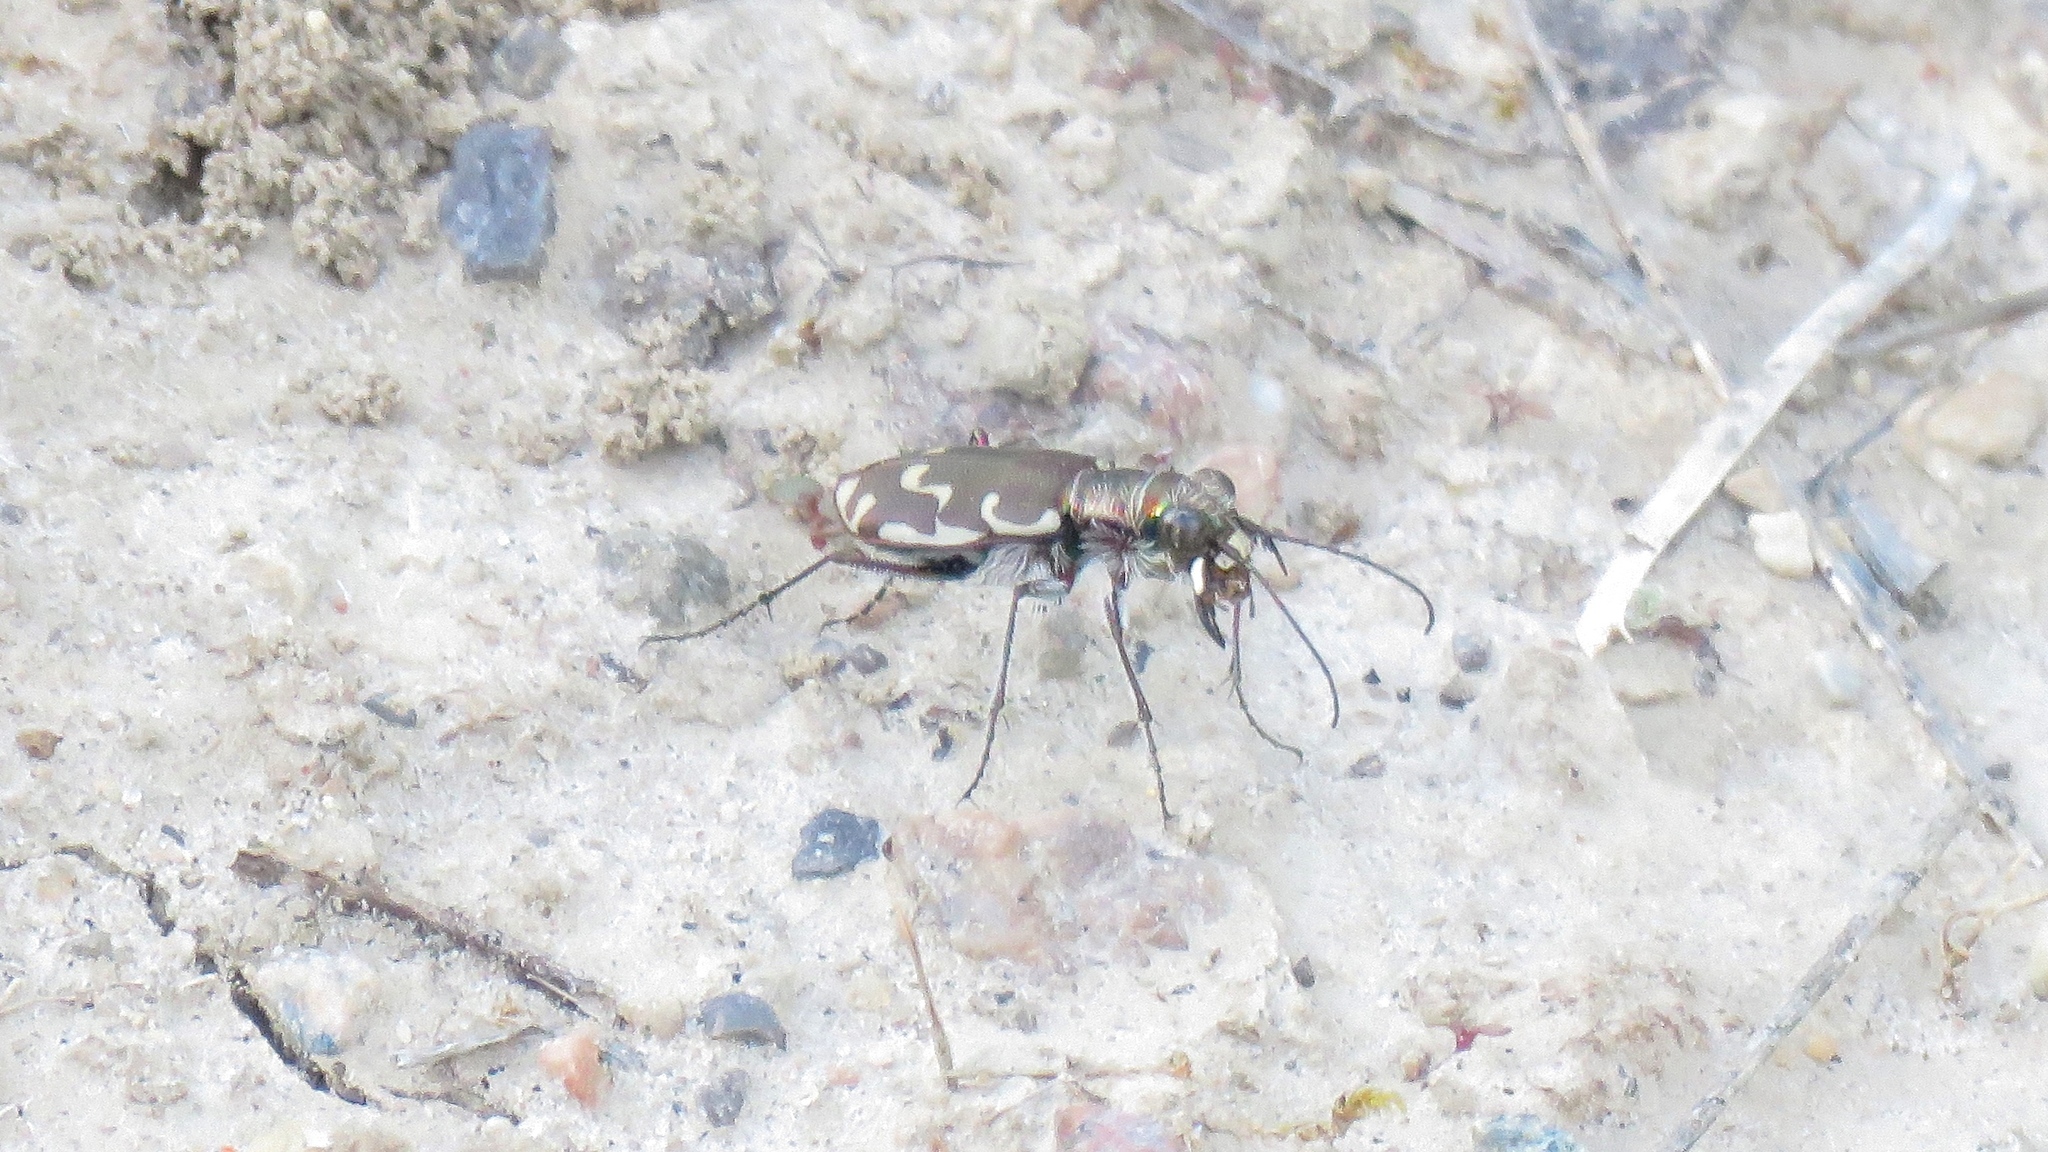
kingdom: Animalia
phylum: Arthropoda
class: Insecta
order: Coleoptera
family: Carabidae
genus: Cicindela
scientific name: Cicindela repanda
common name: Bronzed tiger beetle
